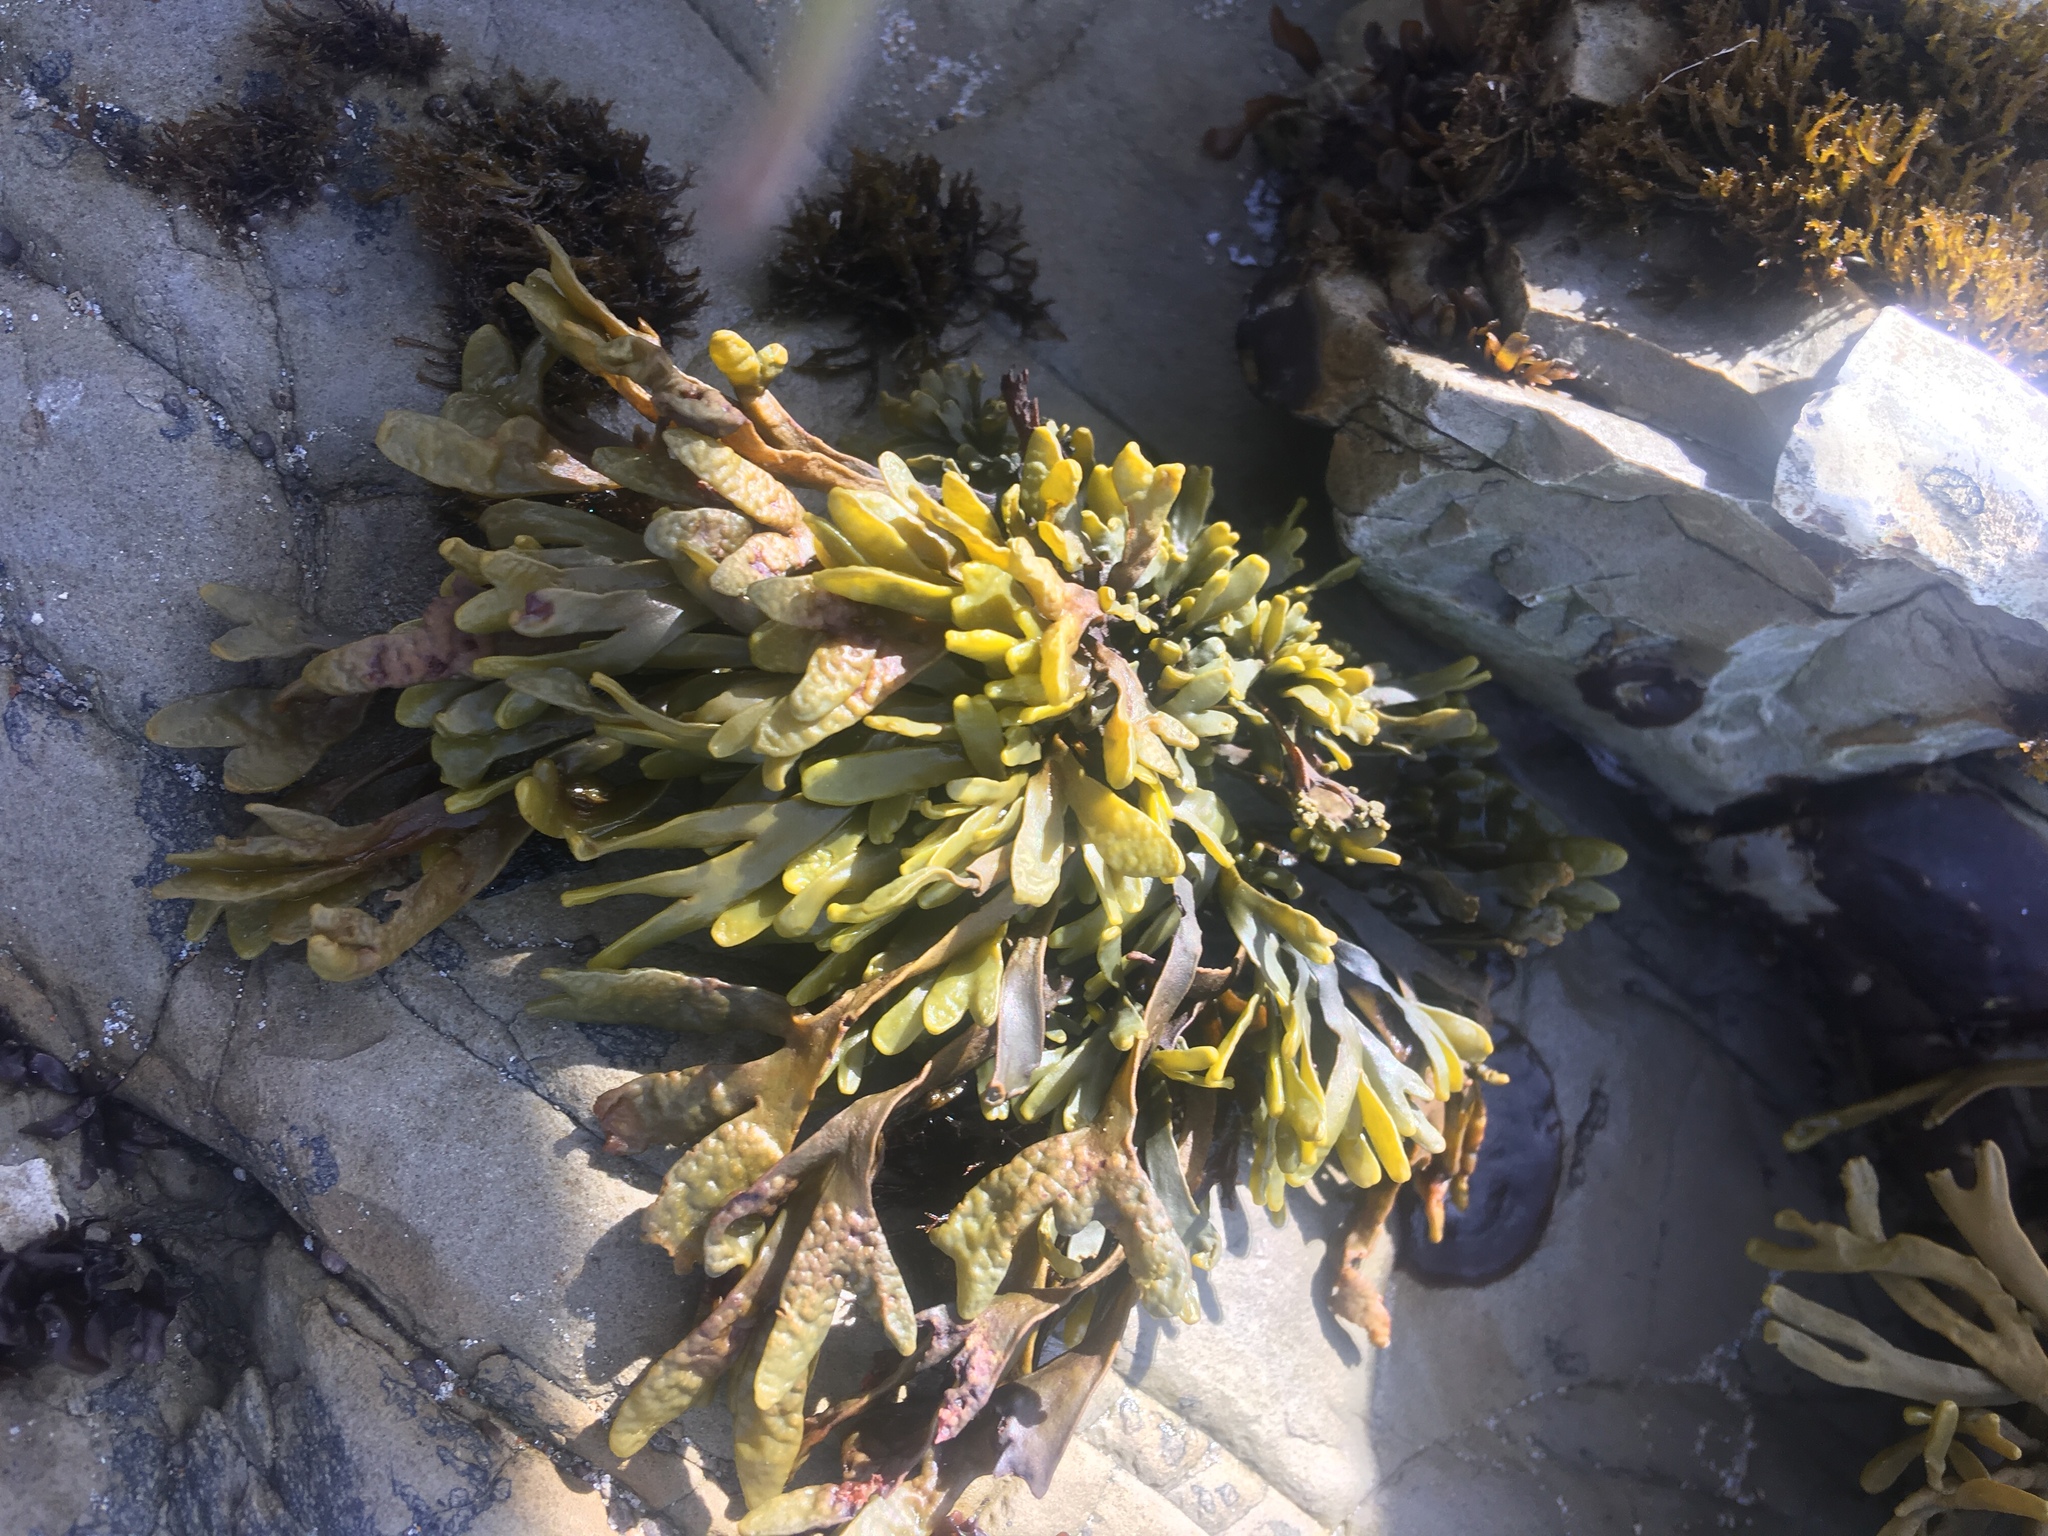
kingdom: Chromista
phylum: Ochrophyta
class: Phaeophyceae
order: Fucales
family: Fucaceae
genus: Pelvetiopsis
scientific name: Pelvetiopsis limitata
